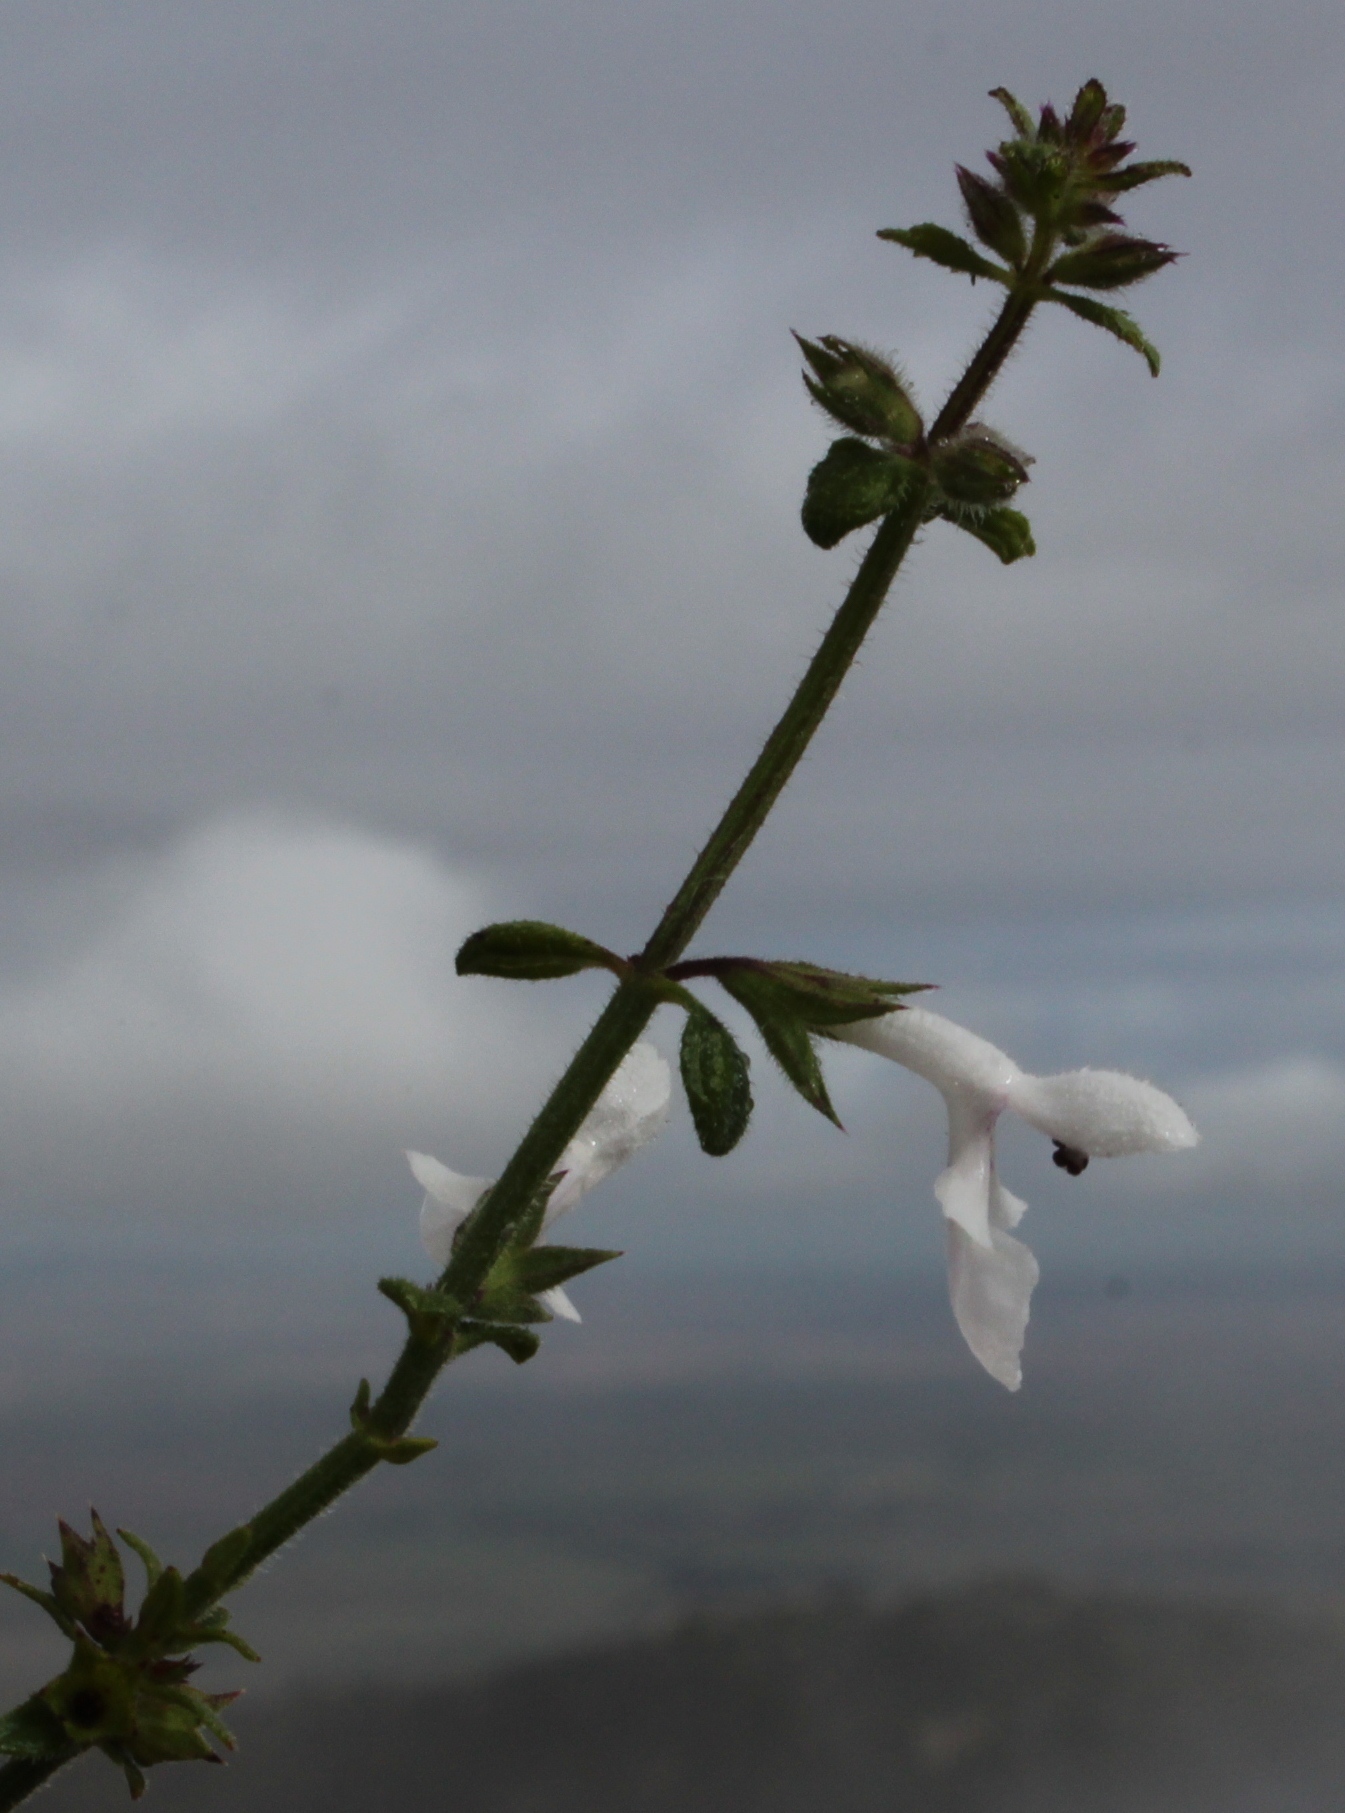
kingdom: Plantae
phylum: Tracheophyta
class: Magnoliopsida
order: Lamiales
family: Lamiaceae
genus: Stachys
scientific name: Stachys aethiopica
